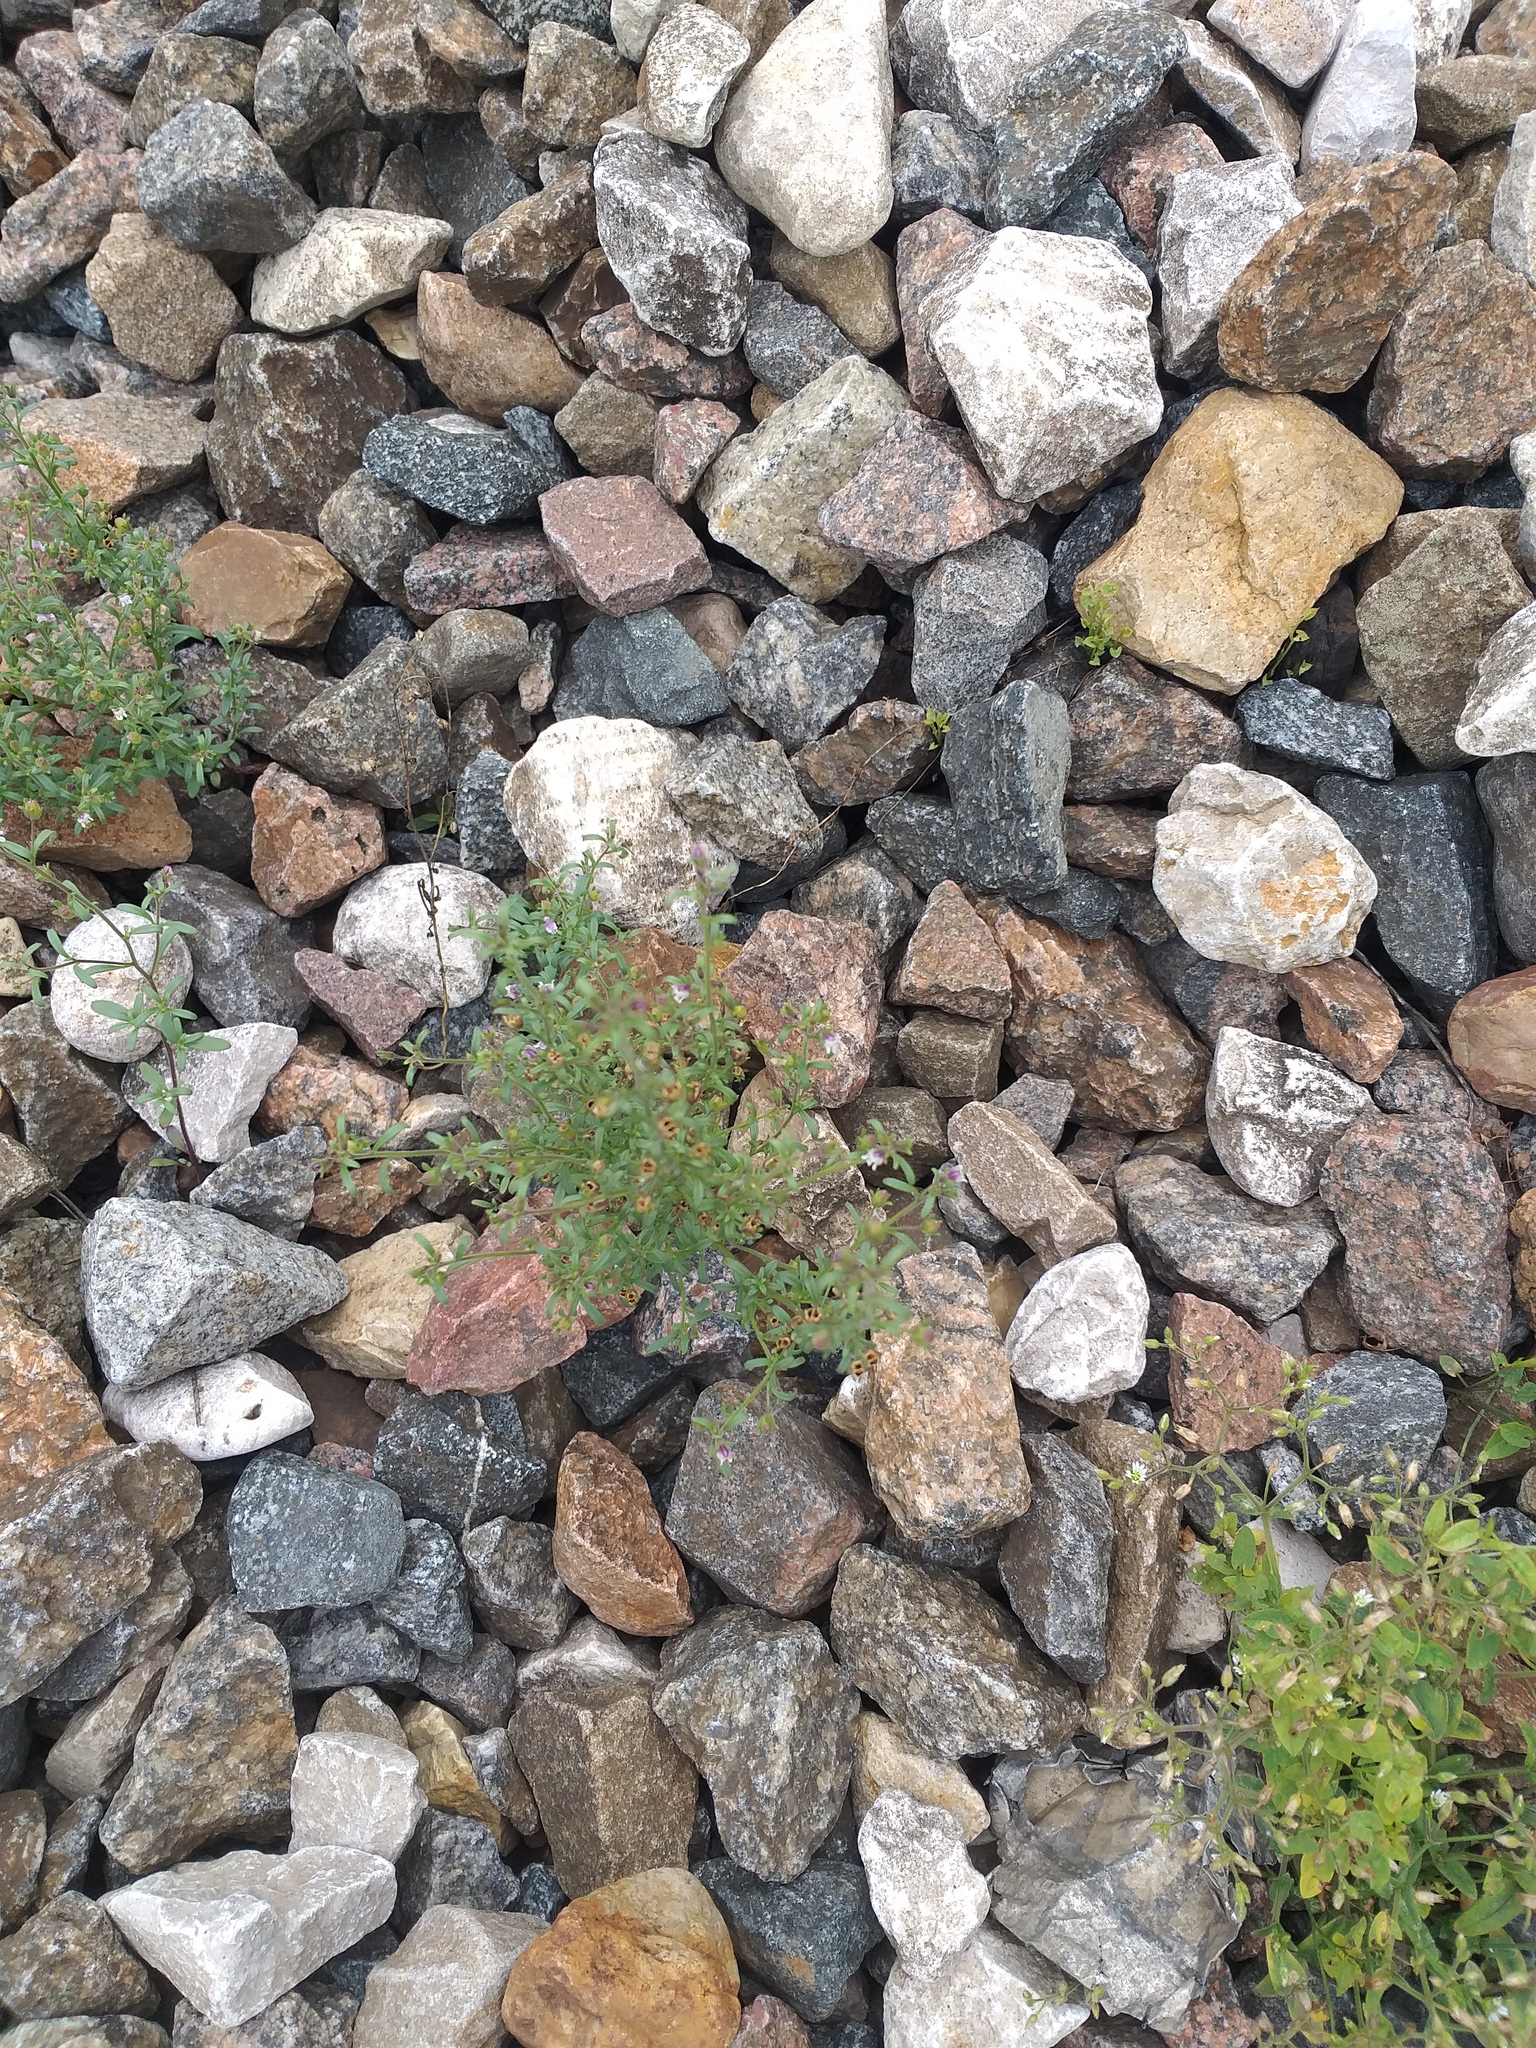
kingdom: Plantae
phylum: Tracheophyta
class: Magnoliopsida
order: Lamiales
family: Plantaginaceae
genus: Chaenorhinum
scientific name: Chaenorhinum minus
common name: Dwarf snapdragon
